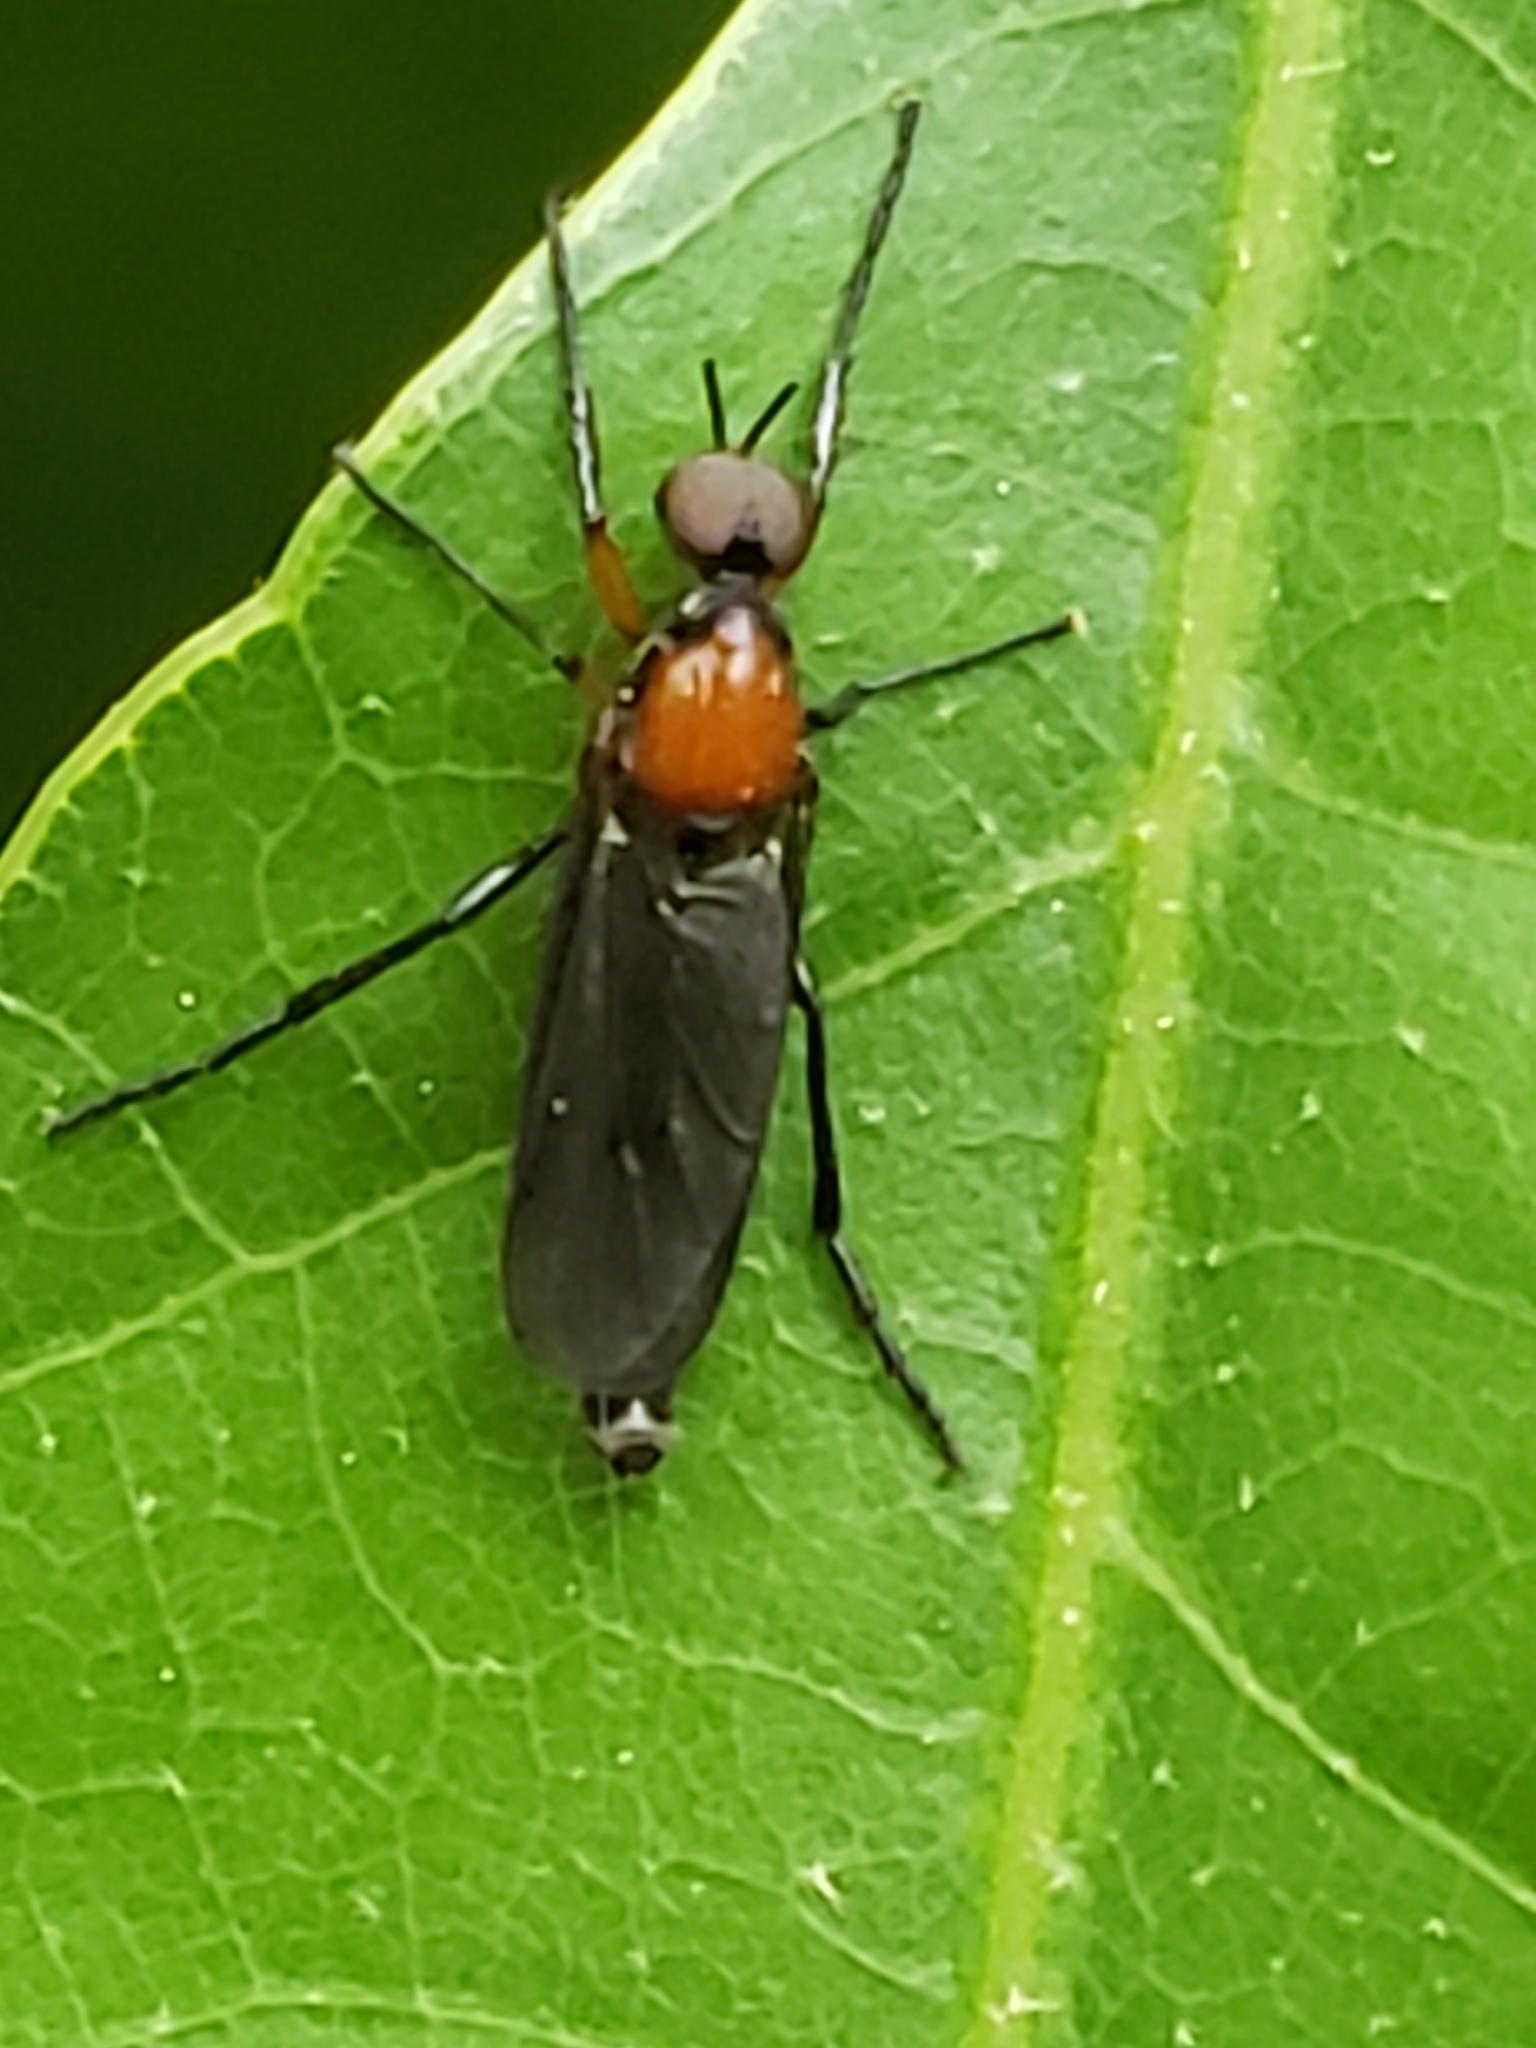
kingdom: Animalia
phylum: Arthropoda
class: Insecta
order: Diptera
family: Bibionidae
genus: Dilophus
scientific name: Dilophus spinipes
